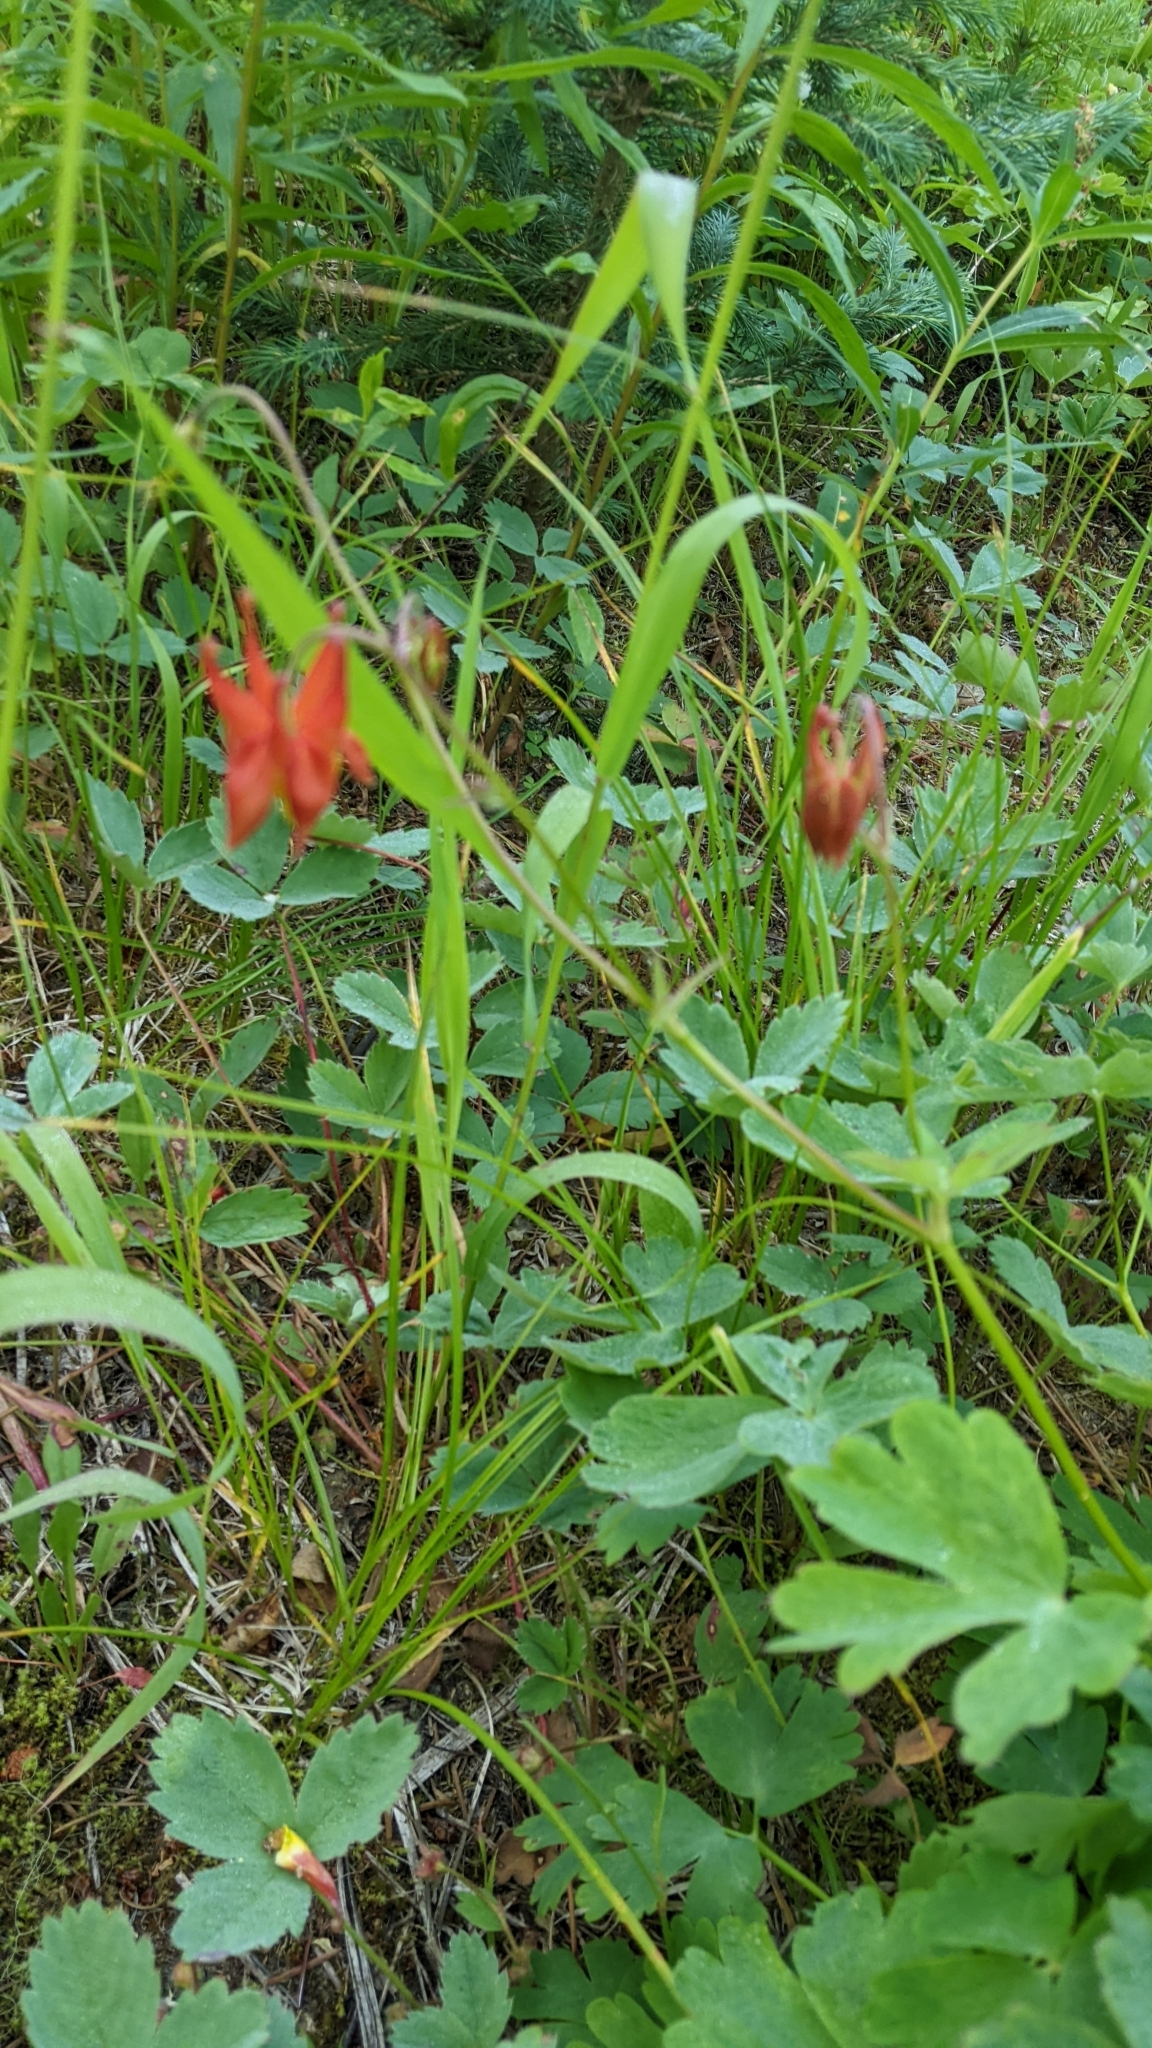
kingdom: Plantae
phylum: Tracheophyta
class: Magnoliopsida
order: Ranunculales
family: Ranunculaceae
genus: Aquilegia
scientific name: Aquilegia formosa
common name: Sitka columbine
